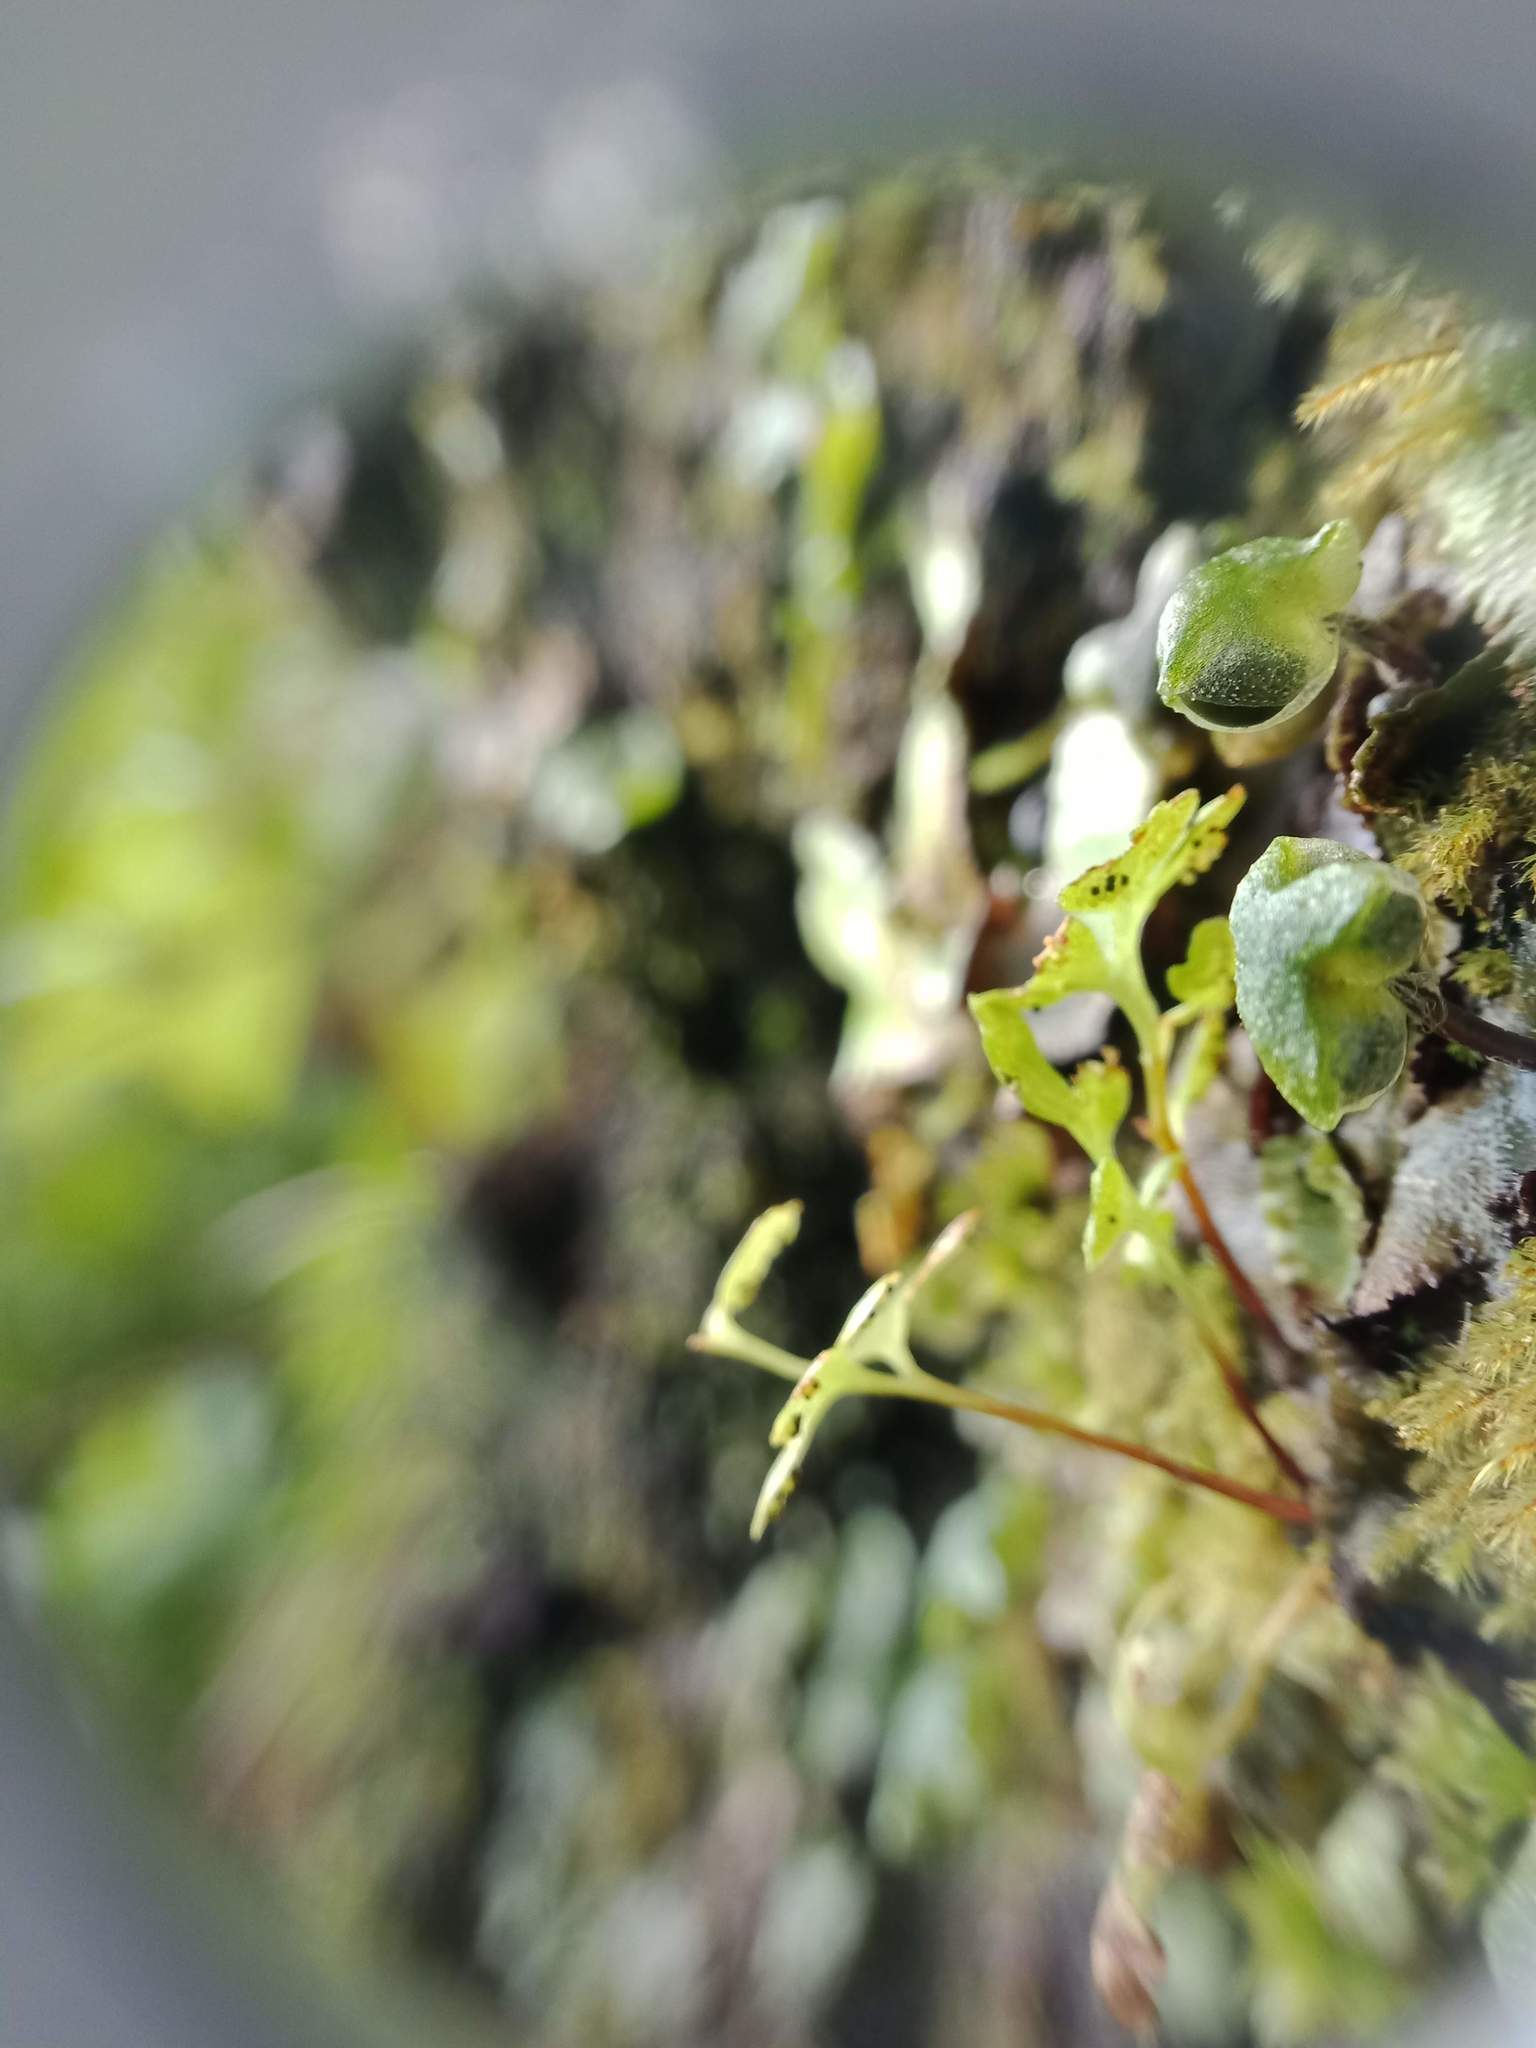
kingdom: Plantae
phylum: Tracheophyta
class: Polypodiopsida
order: Polypodiales
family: Pteridaceae
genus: Anogramma
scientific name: Anogramma leptophylla
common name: Jersey fern
